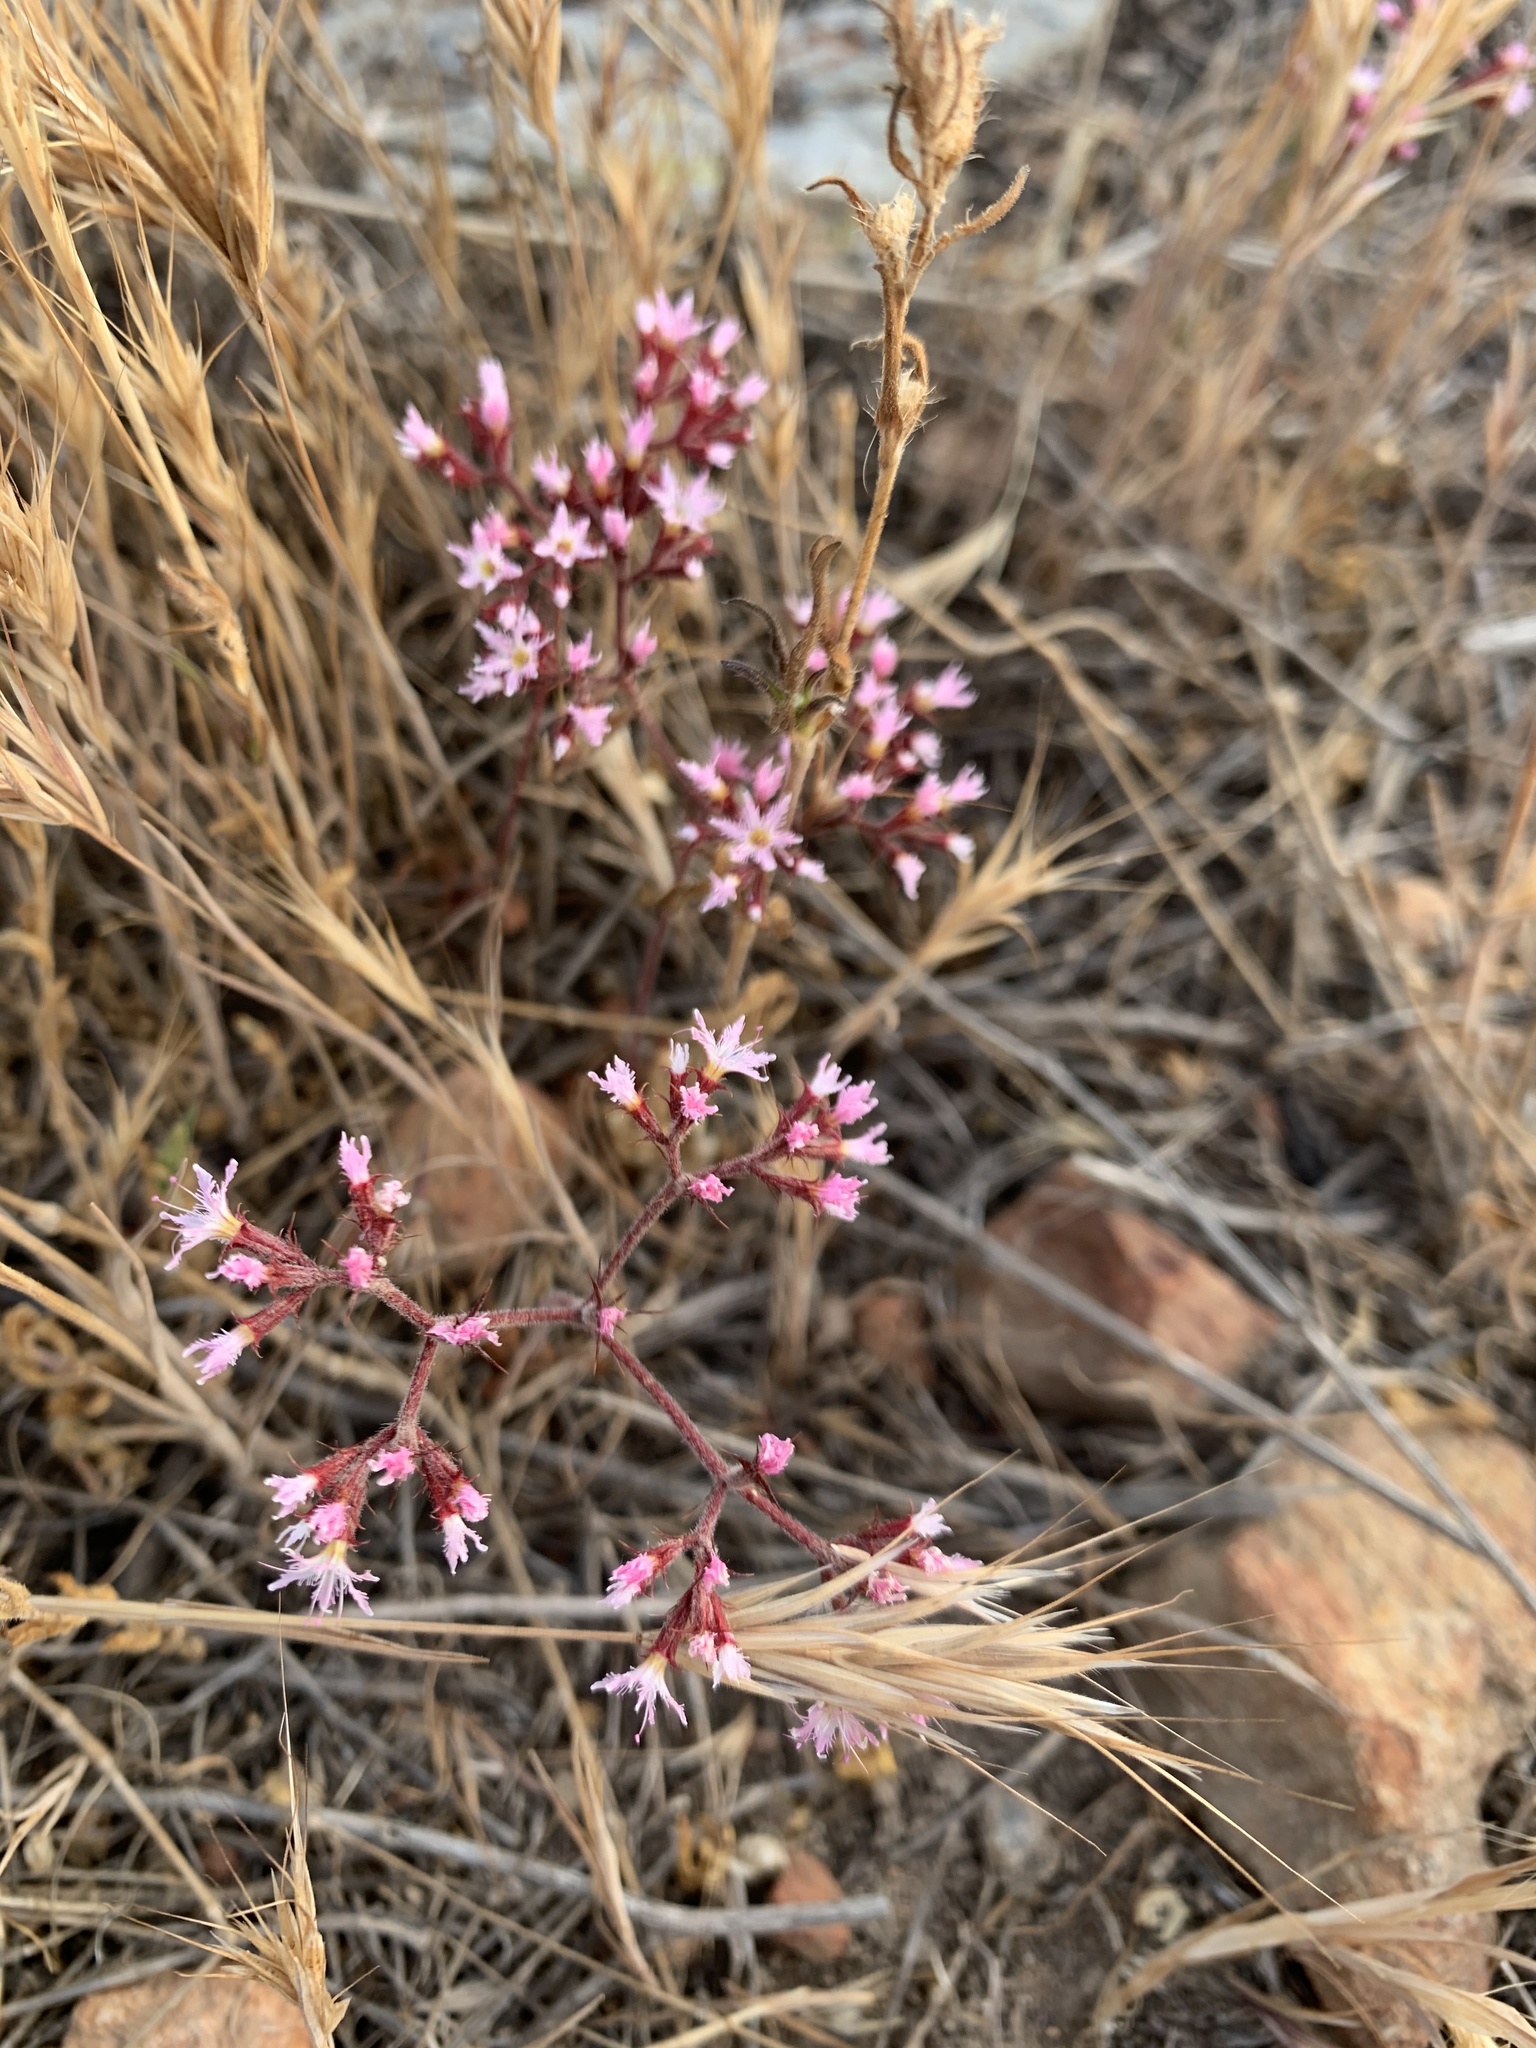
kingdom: Plantae
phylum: Tracheophyta
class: Magnoliopsida
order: Caryophyllales
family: Polygonaceae
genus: Chorizanthe
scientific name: Chorizanthe fimbriata
